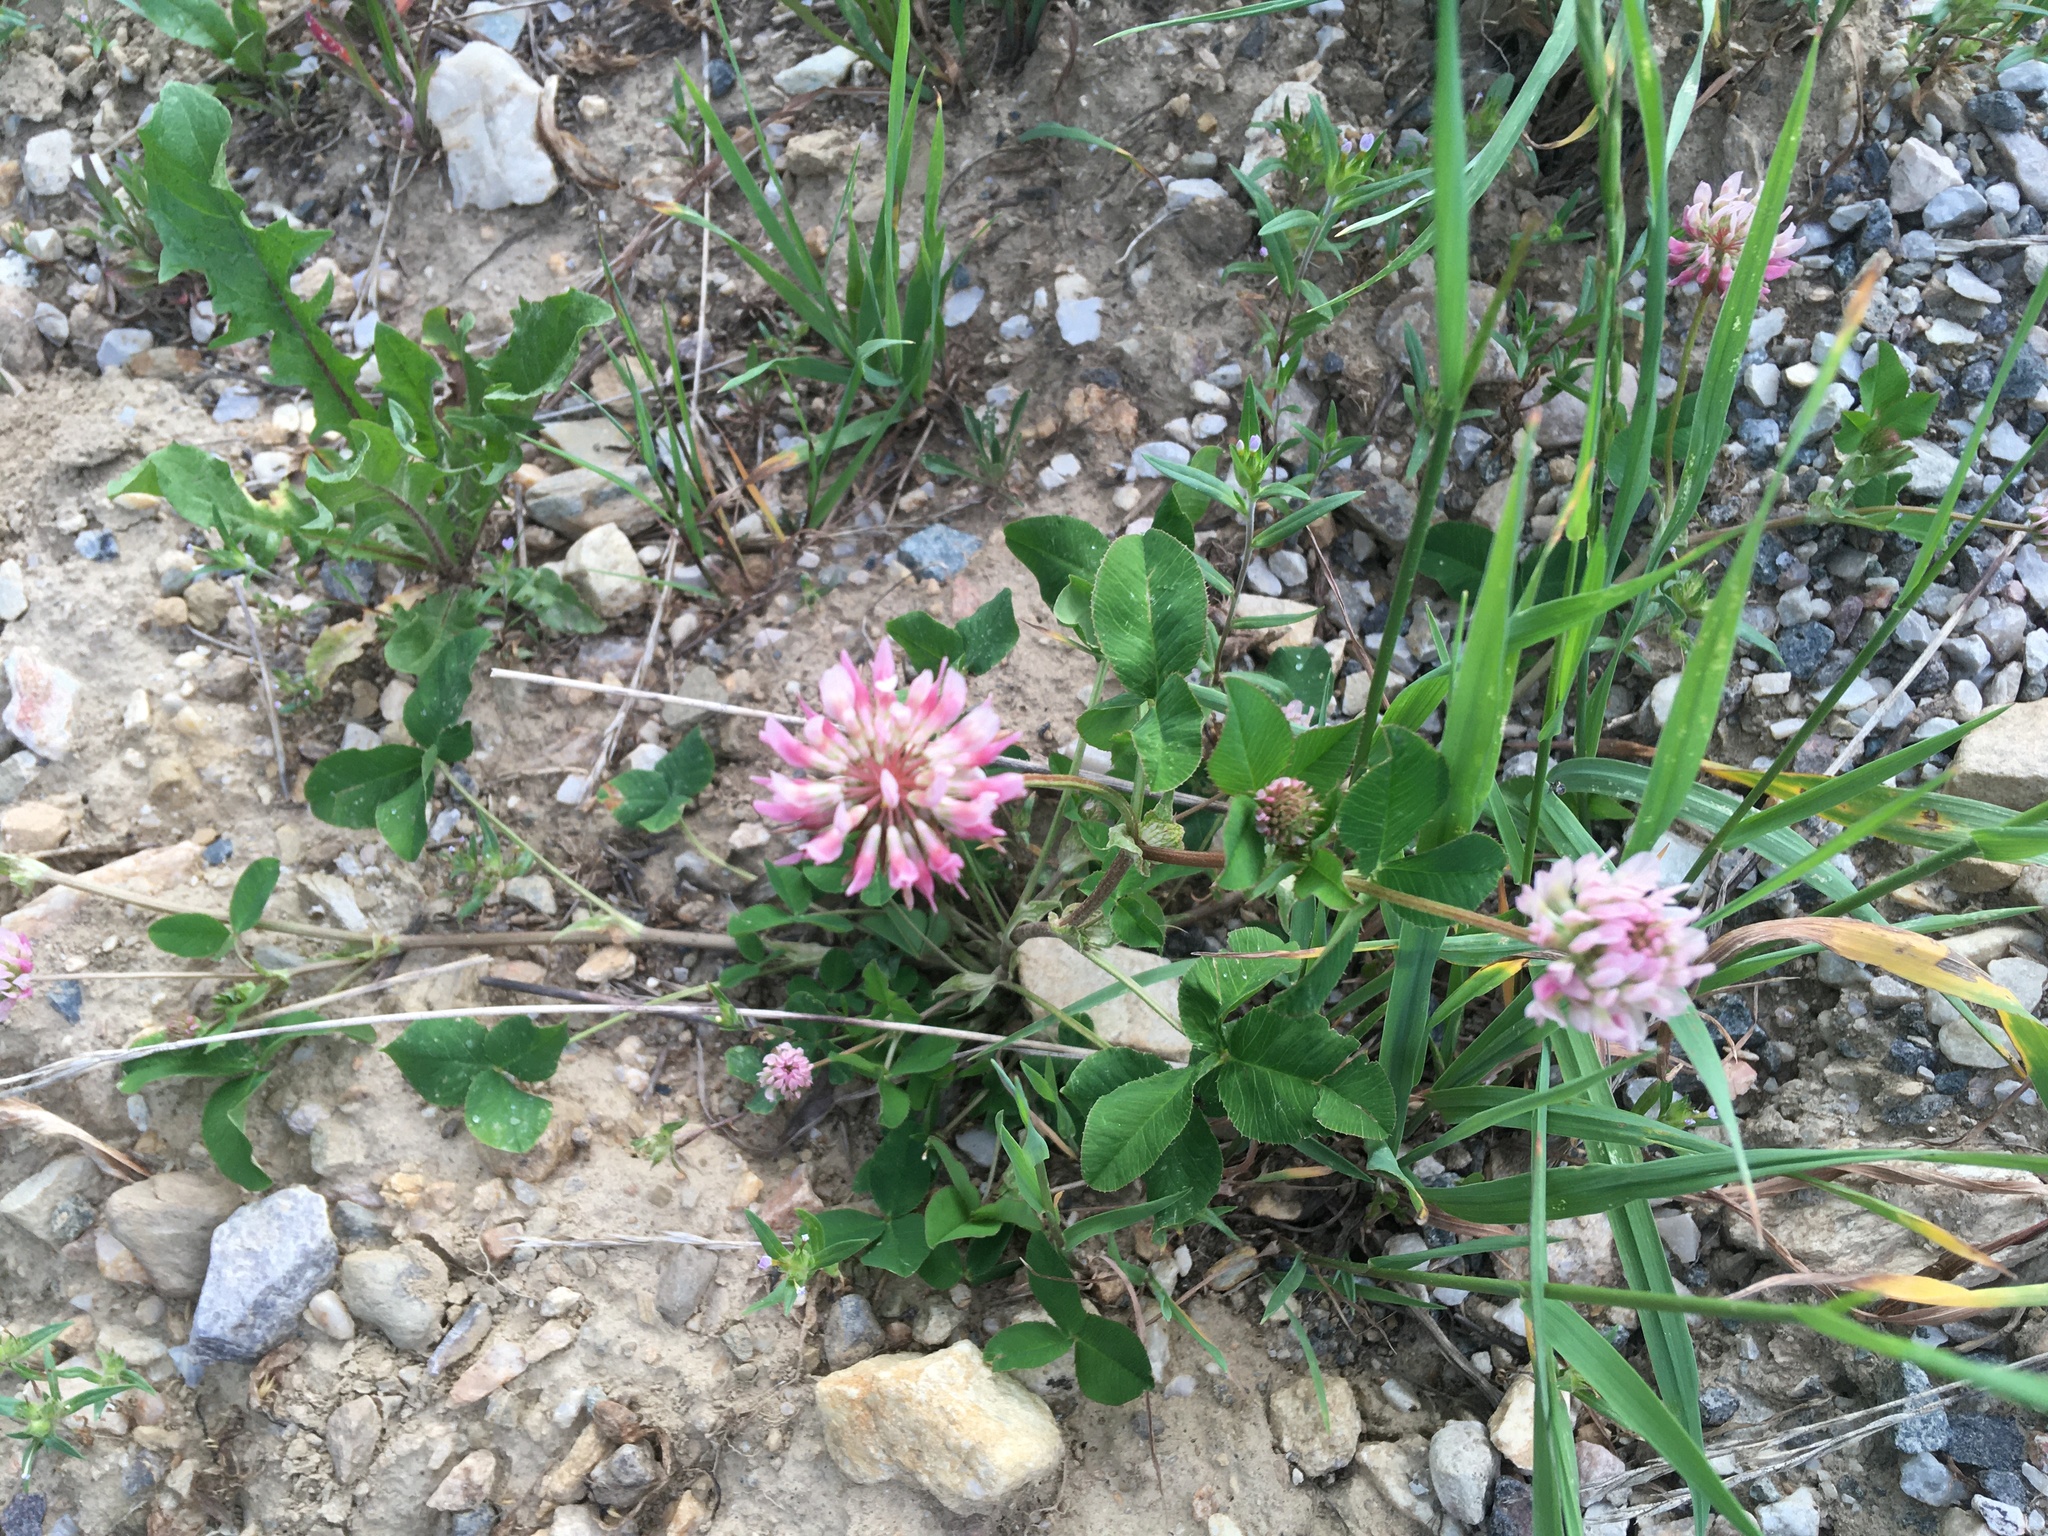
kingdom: Plantae
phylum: Tracheophyta
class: Magnoliopsida
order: Fabales
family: Fabaceae
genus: Trifolium
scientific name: Trifolium hybridum
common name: Alsike clover
